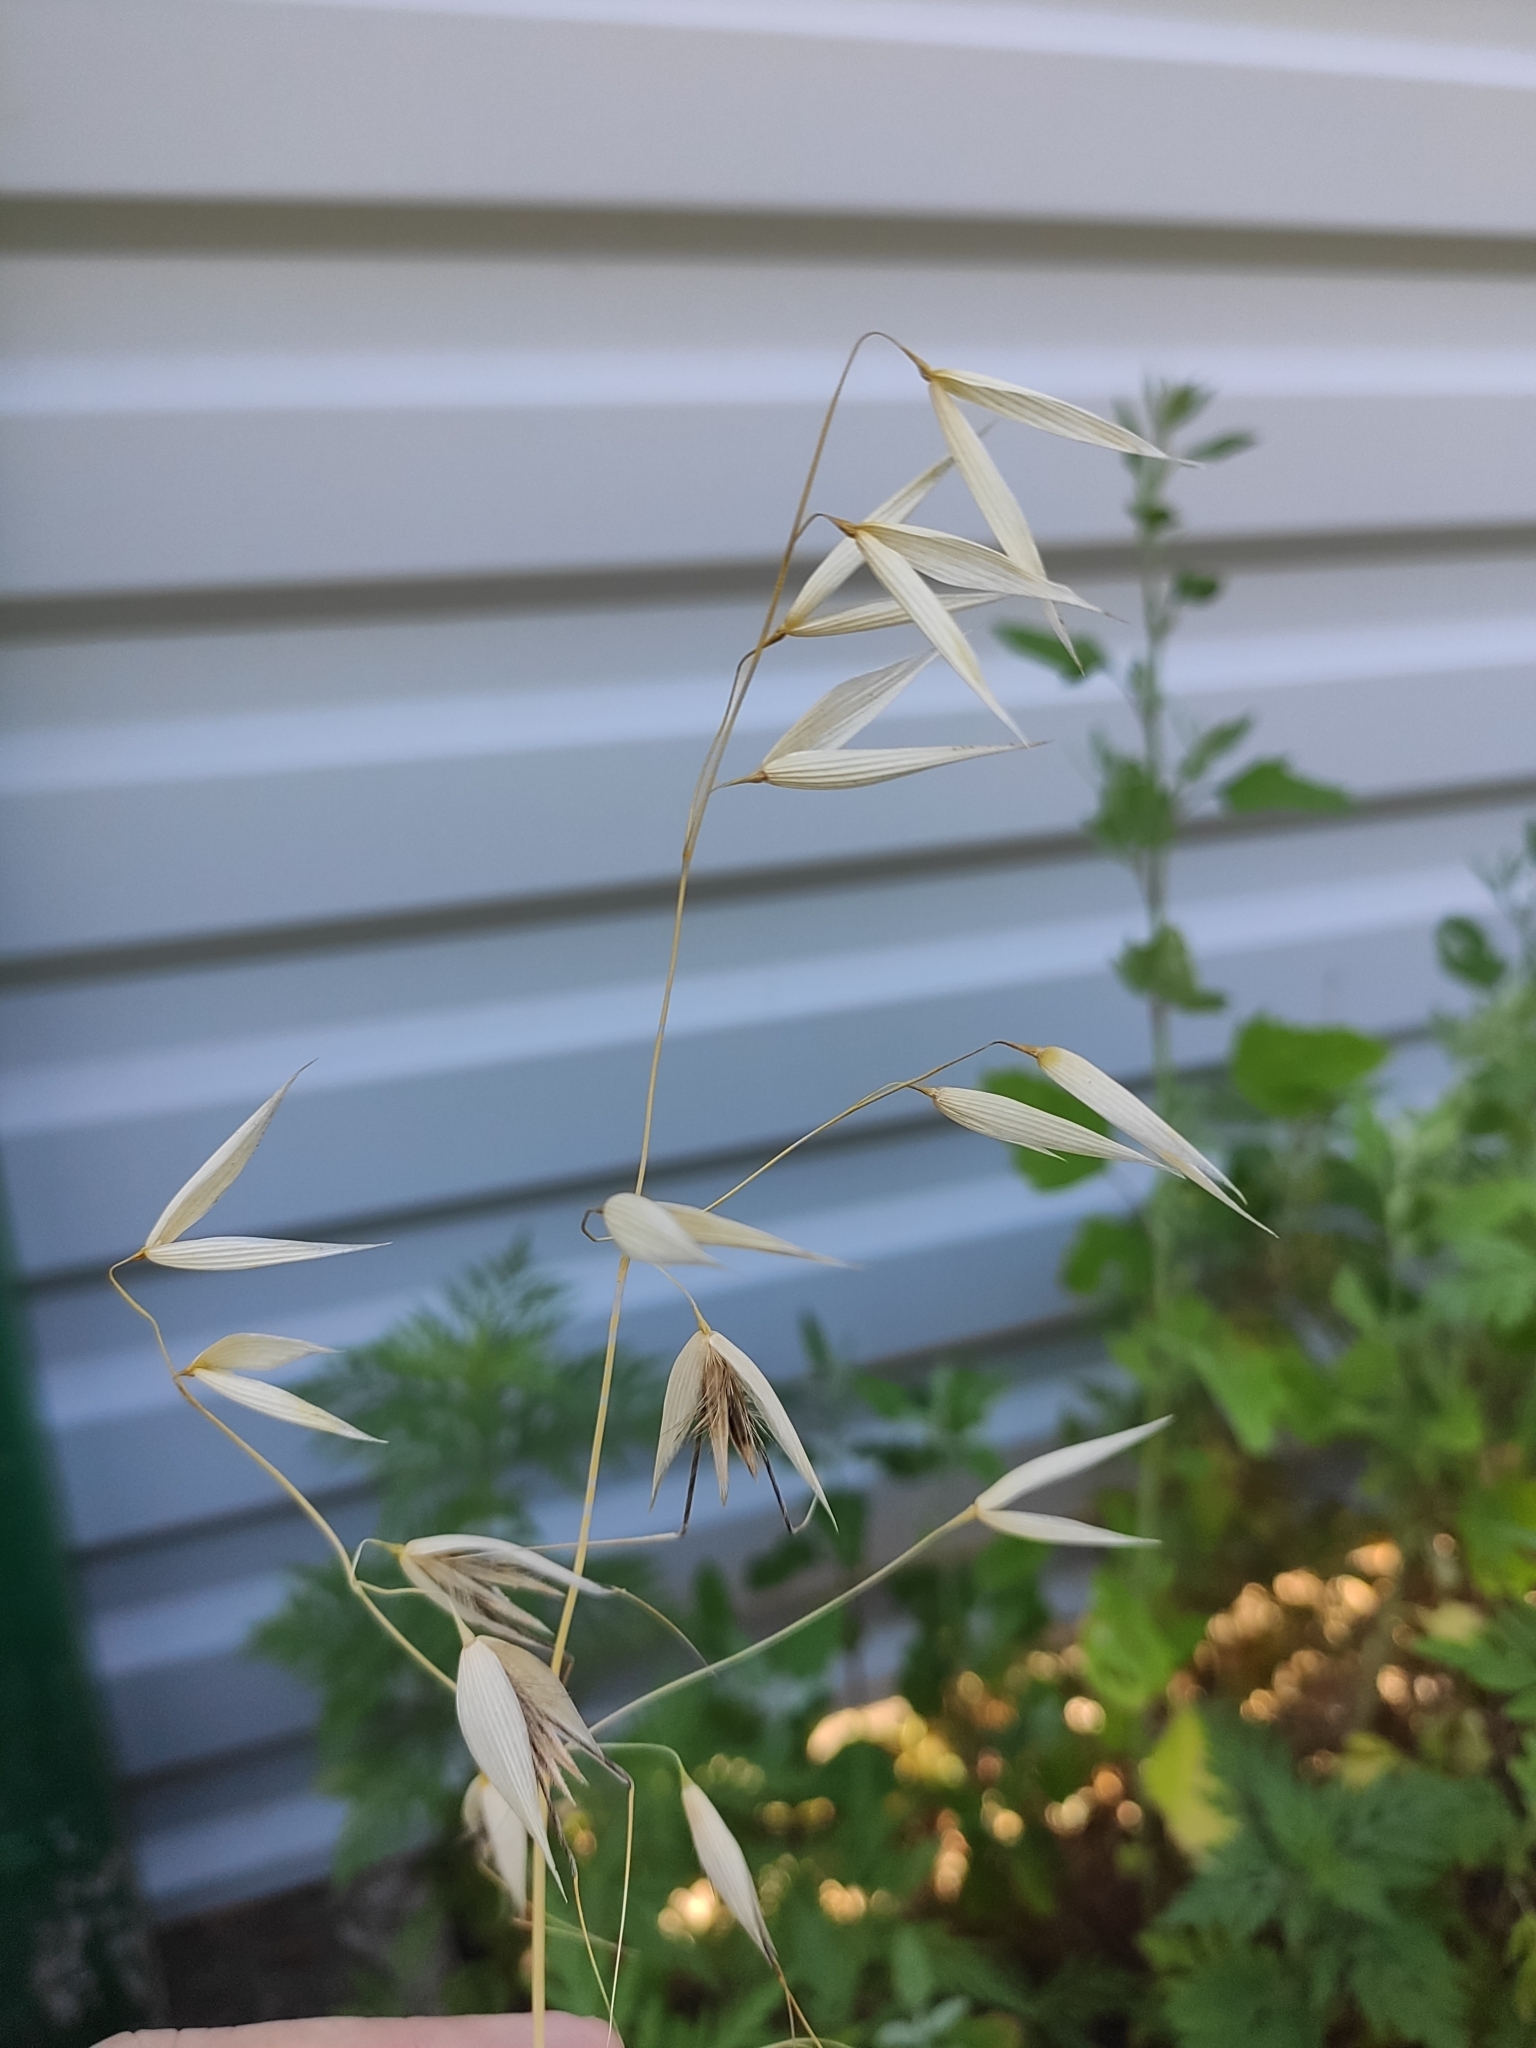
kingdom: Plantae
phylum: Tracheophyta
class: Liliopsida
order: Poales
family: Poaceae
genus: Avena
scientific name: Avena fatua
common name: Wild oat
